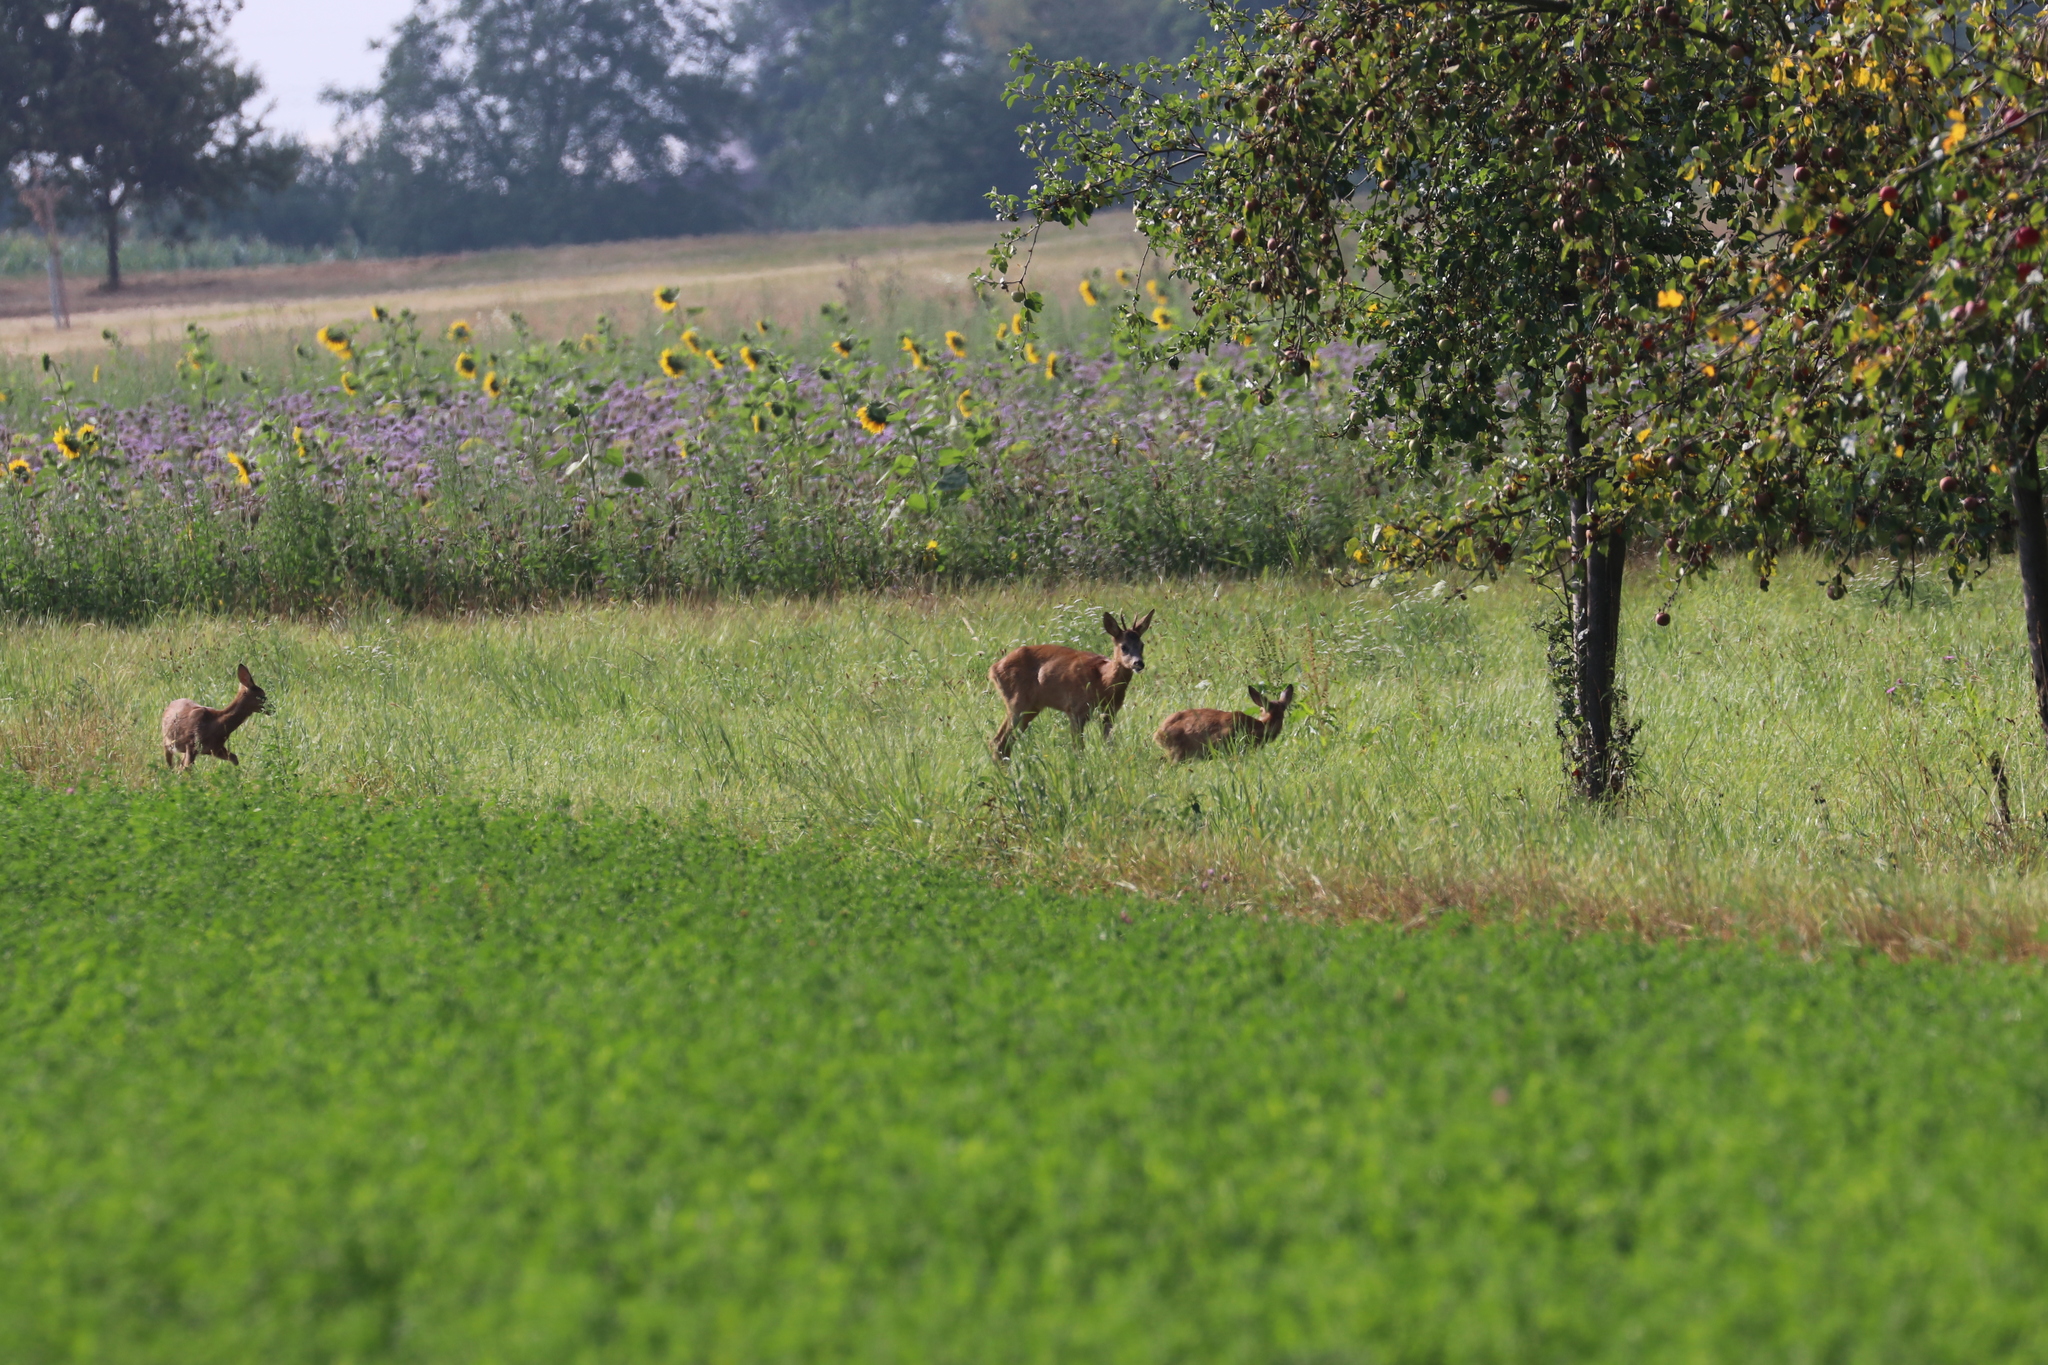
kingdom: Animalia
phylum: Chordata
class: Mammalia
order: Artiodactyla
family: Cervidae
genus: Capreolus
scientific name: Capreolus capreolus
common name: Western roe deer
